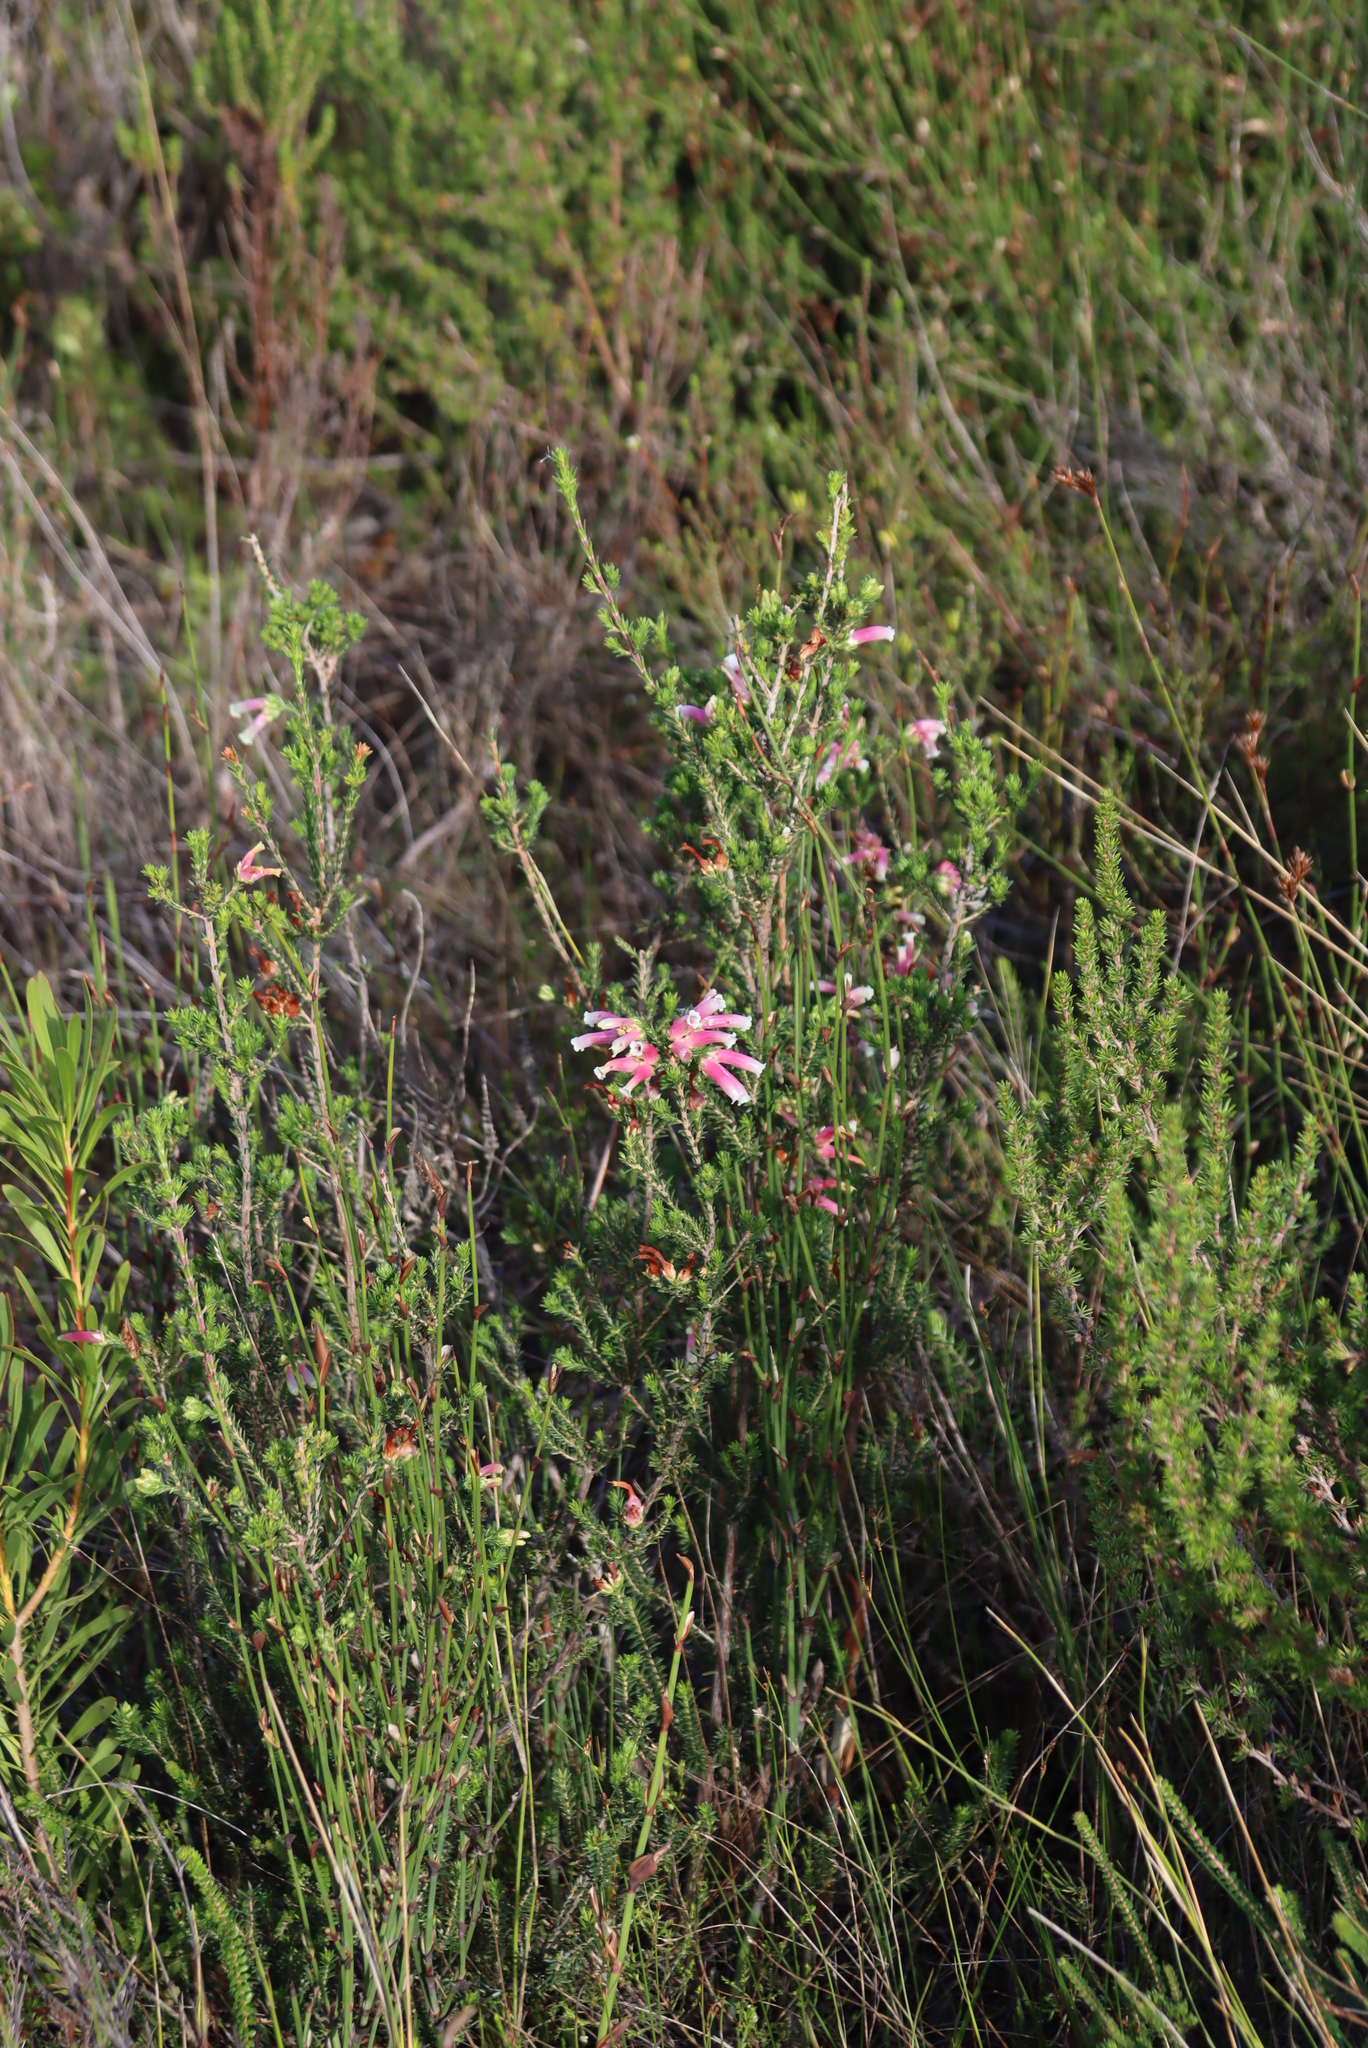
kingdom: Plantae
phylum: Tracheophyta
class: Magnoliopsida
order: Ericales
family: Ericaceae
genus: Erica
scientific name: Erica versicolor
